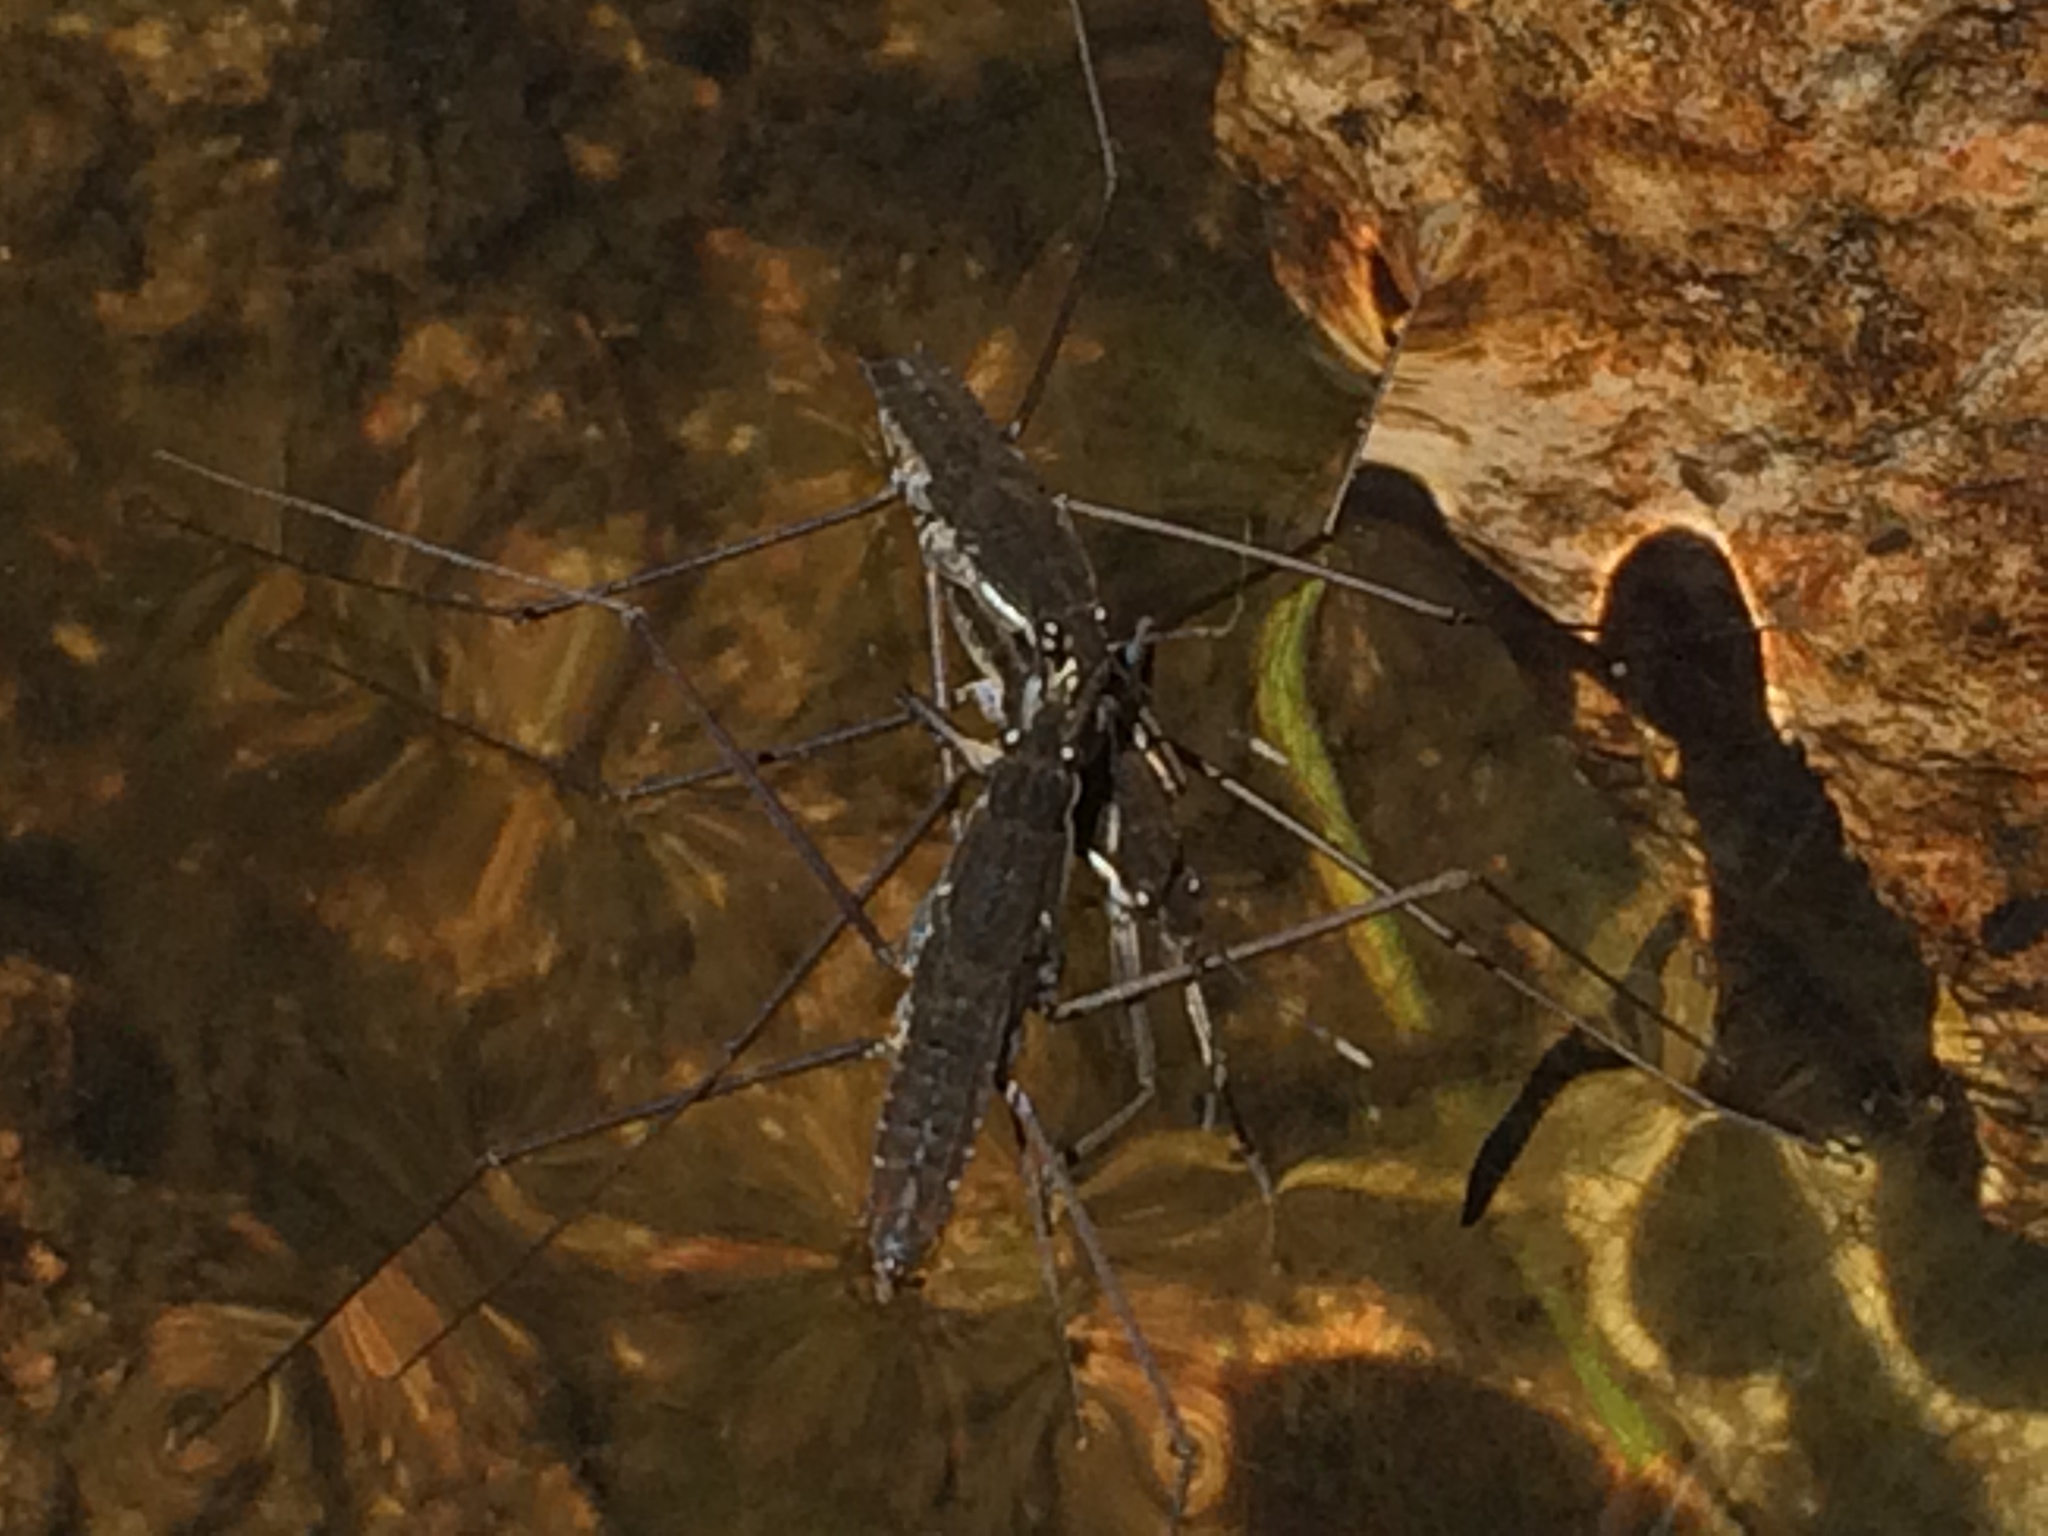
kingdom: Animalia
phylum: Arthropoda
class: Insecta
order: Hemiptera
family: Gerridae
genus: Aquarius
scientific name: Aquarius remigis
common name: Common water strider
